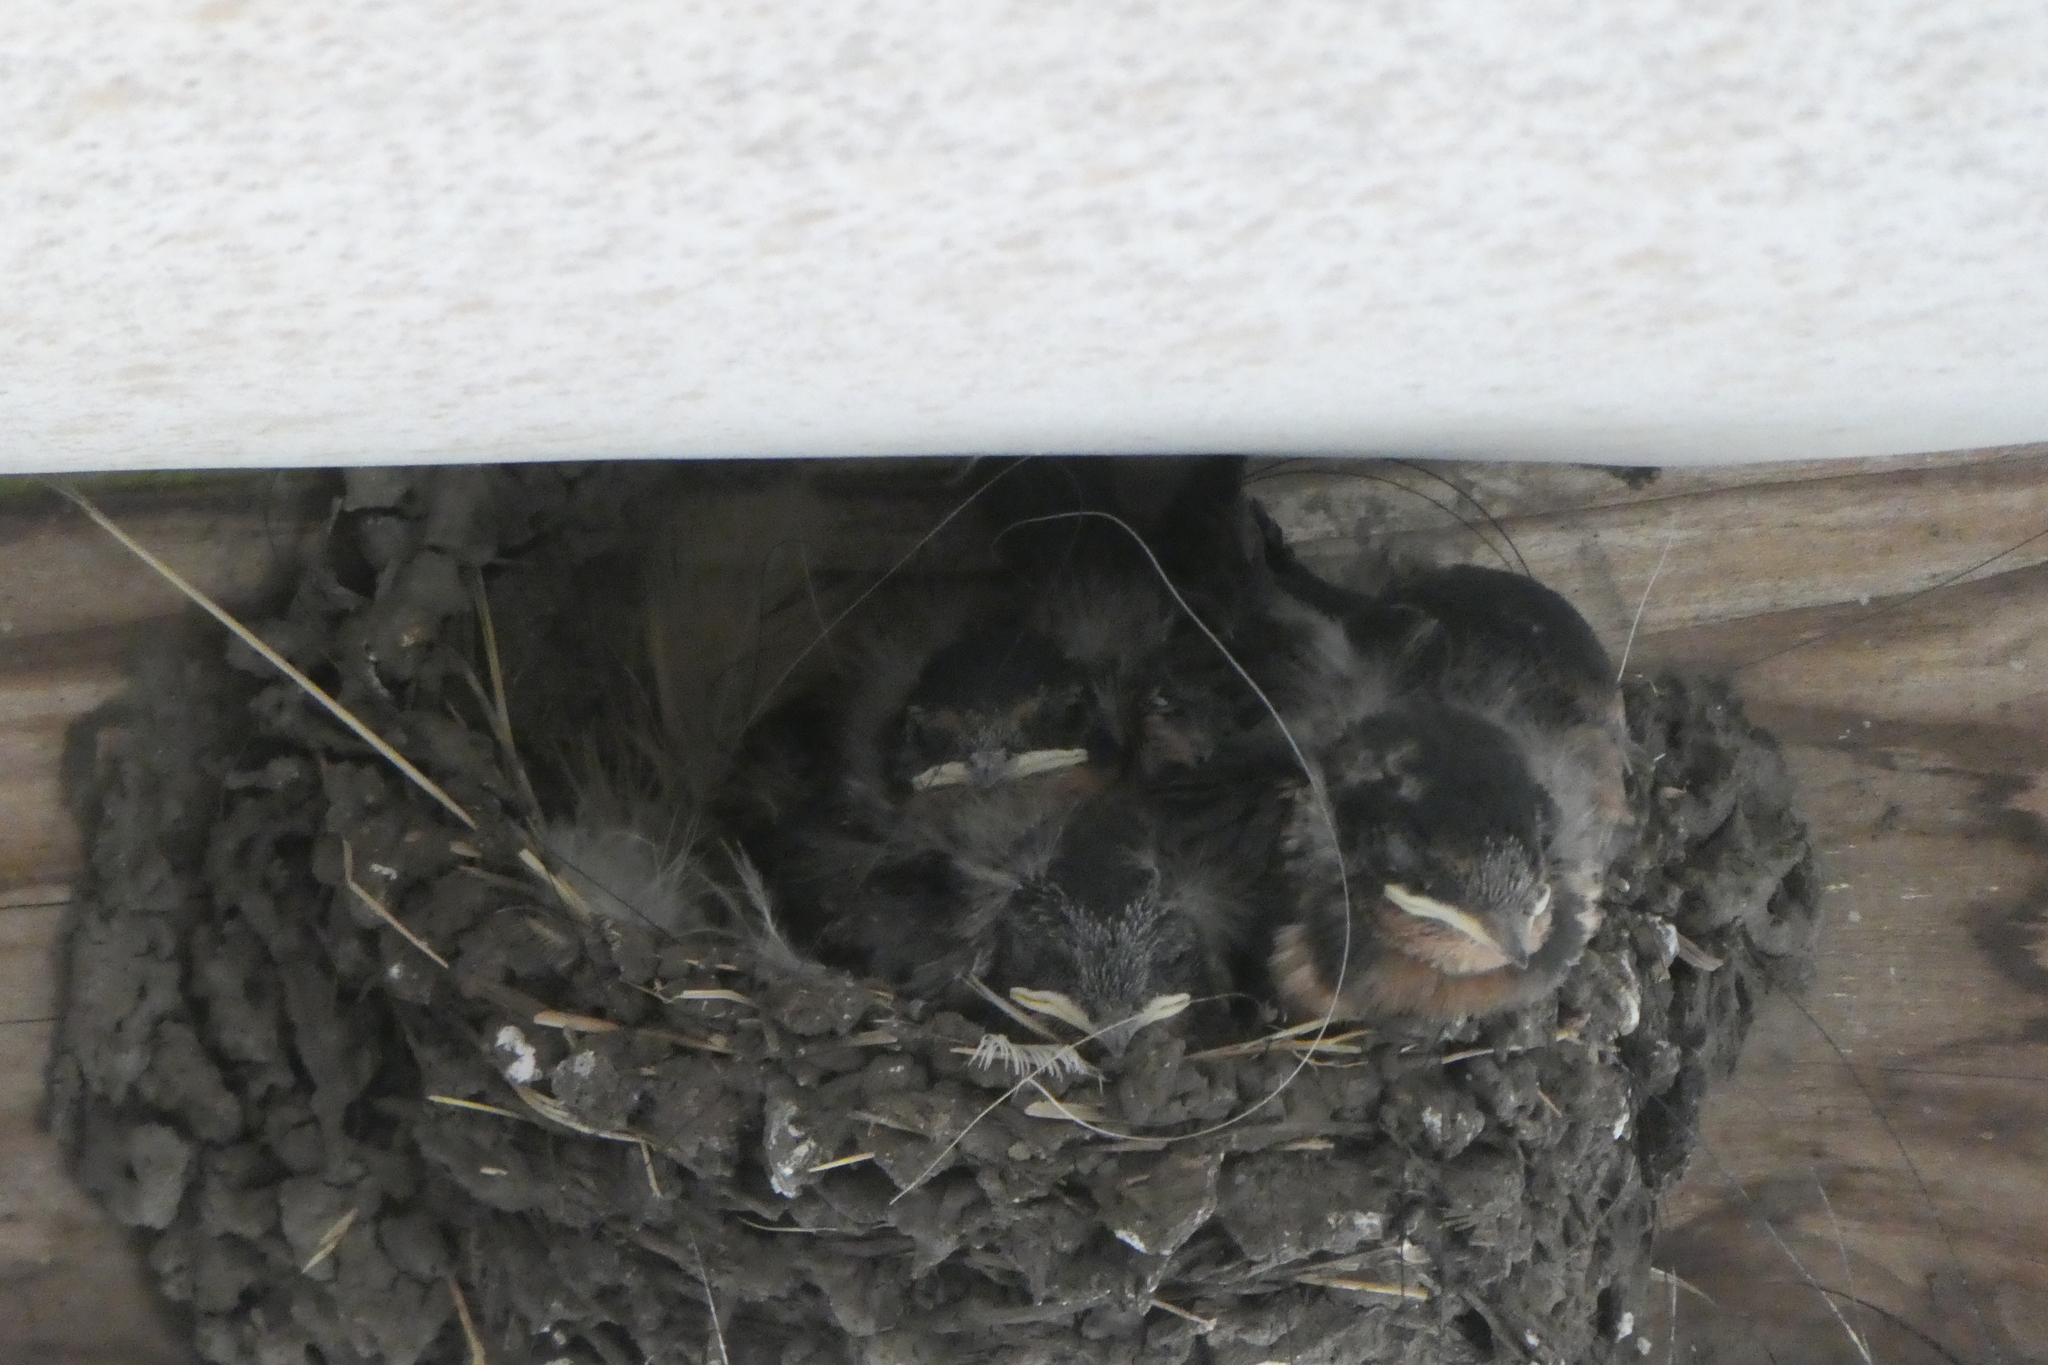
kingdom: Animalia
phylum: Chordata
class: Aves
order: Passeriformes
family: Hirundinidae
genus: Hirundo
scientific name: Hirundo rustica
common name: Barn swallow
